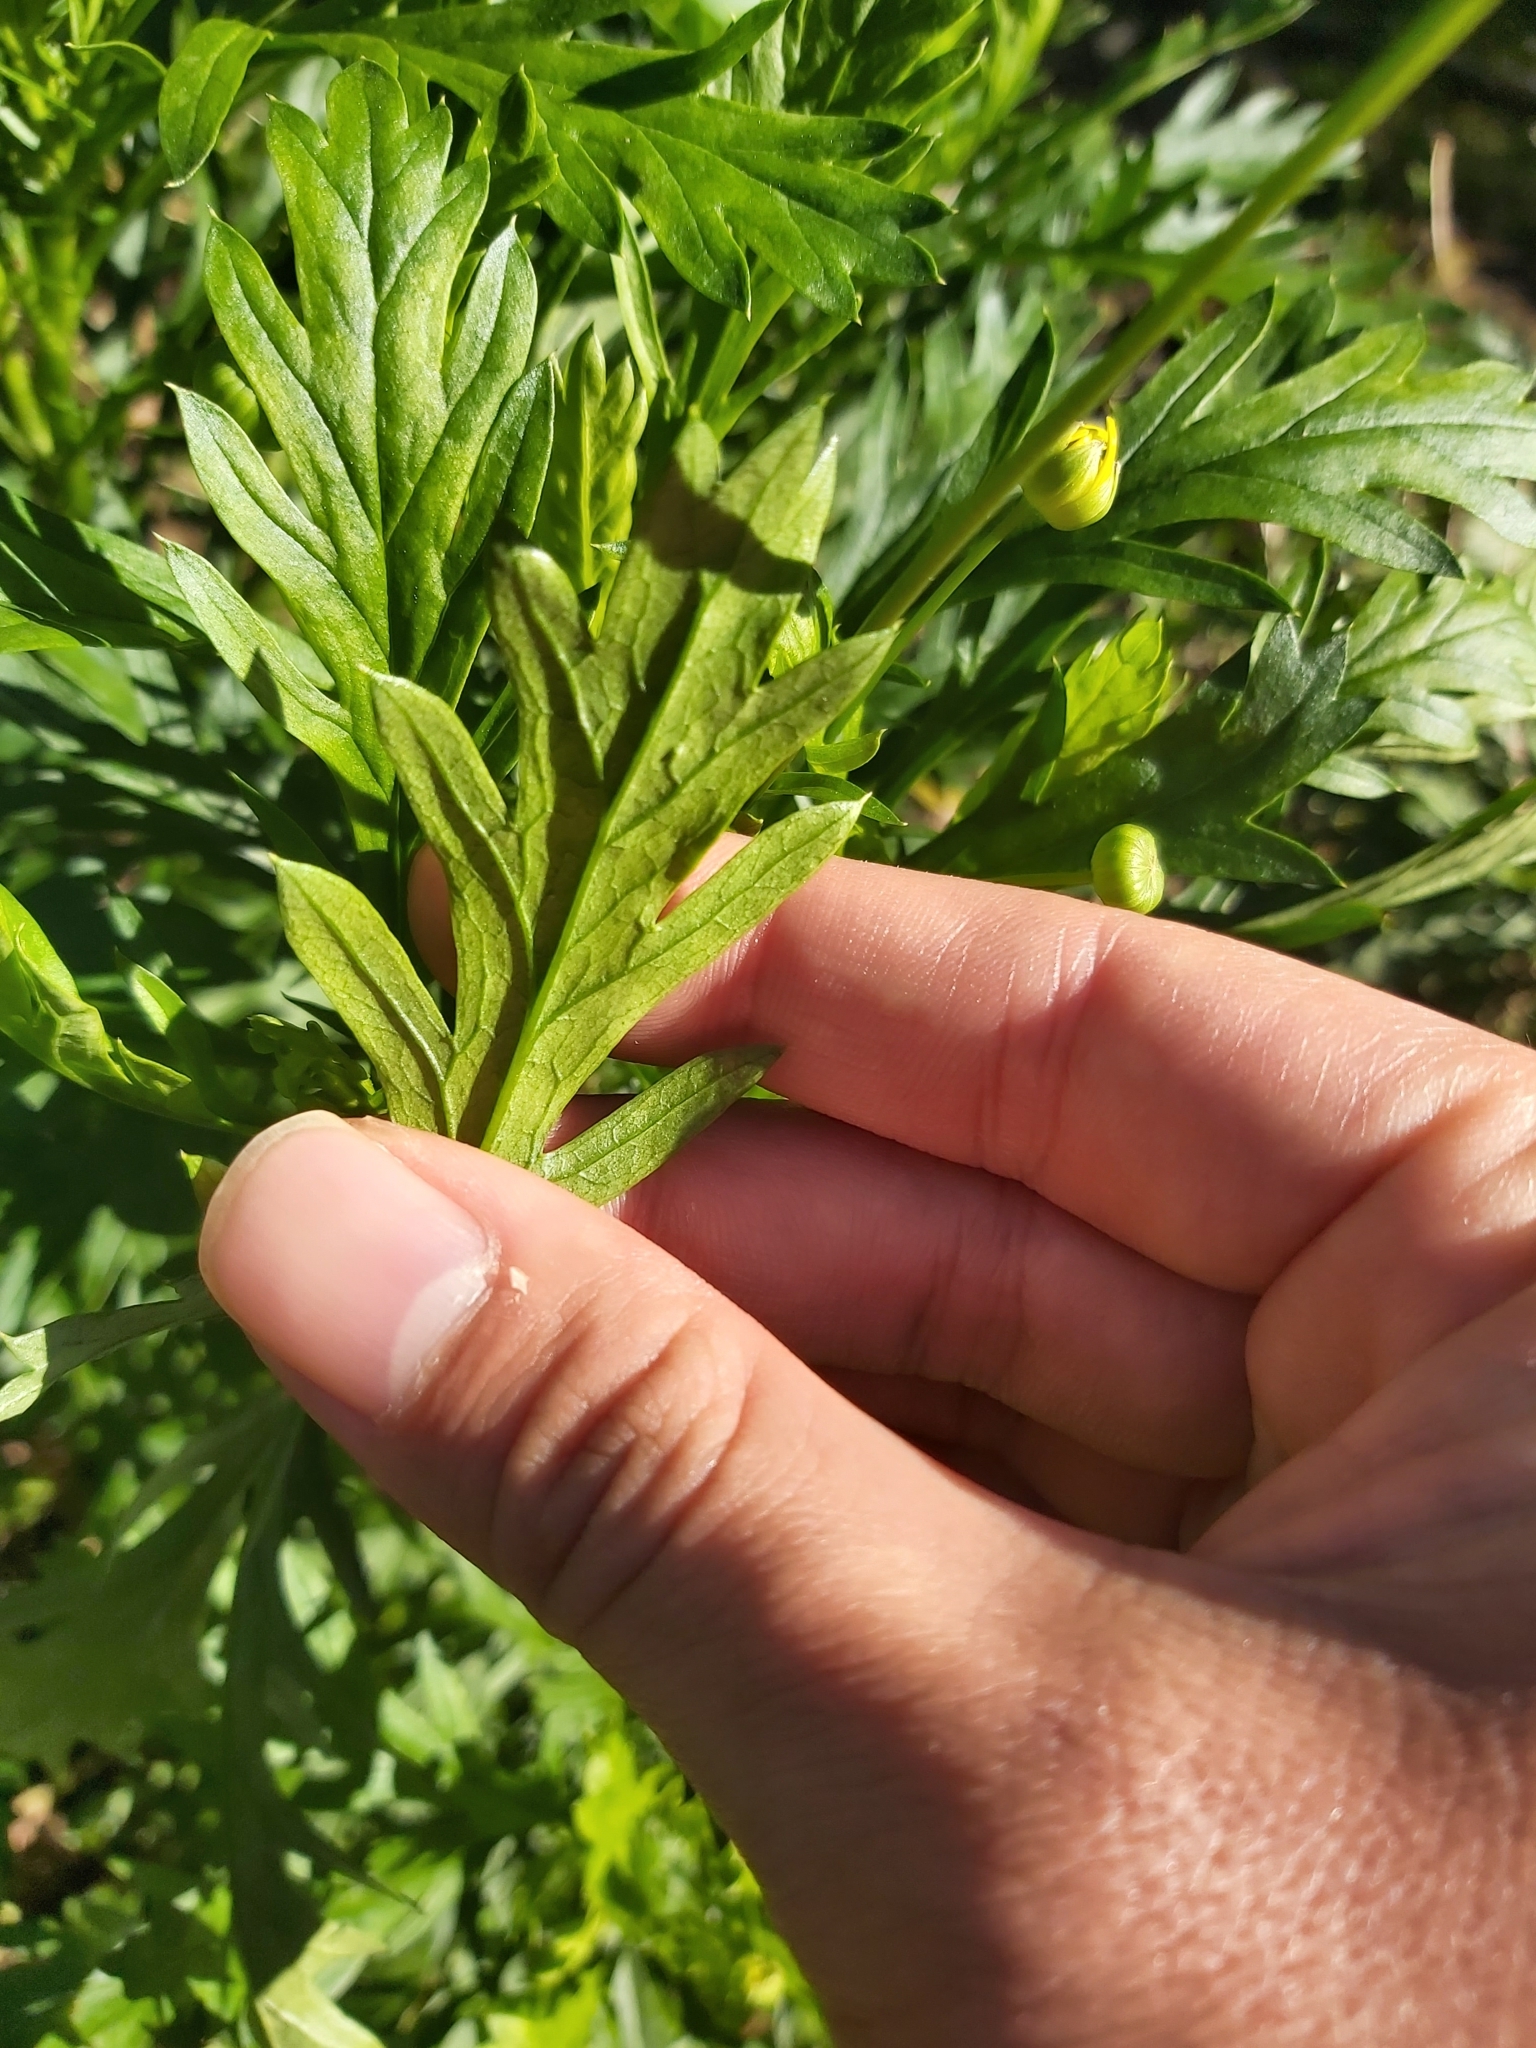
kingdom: Plantae
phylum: Tracheophyta
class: Magnoliopsida
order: Asterales
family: Asteraceae
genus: Euryops
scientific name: Euryops chrysanthemoides
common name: Bull's eye
